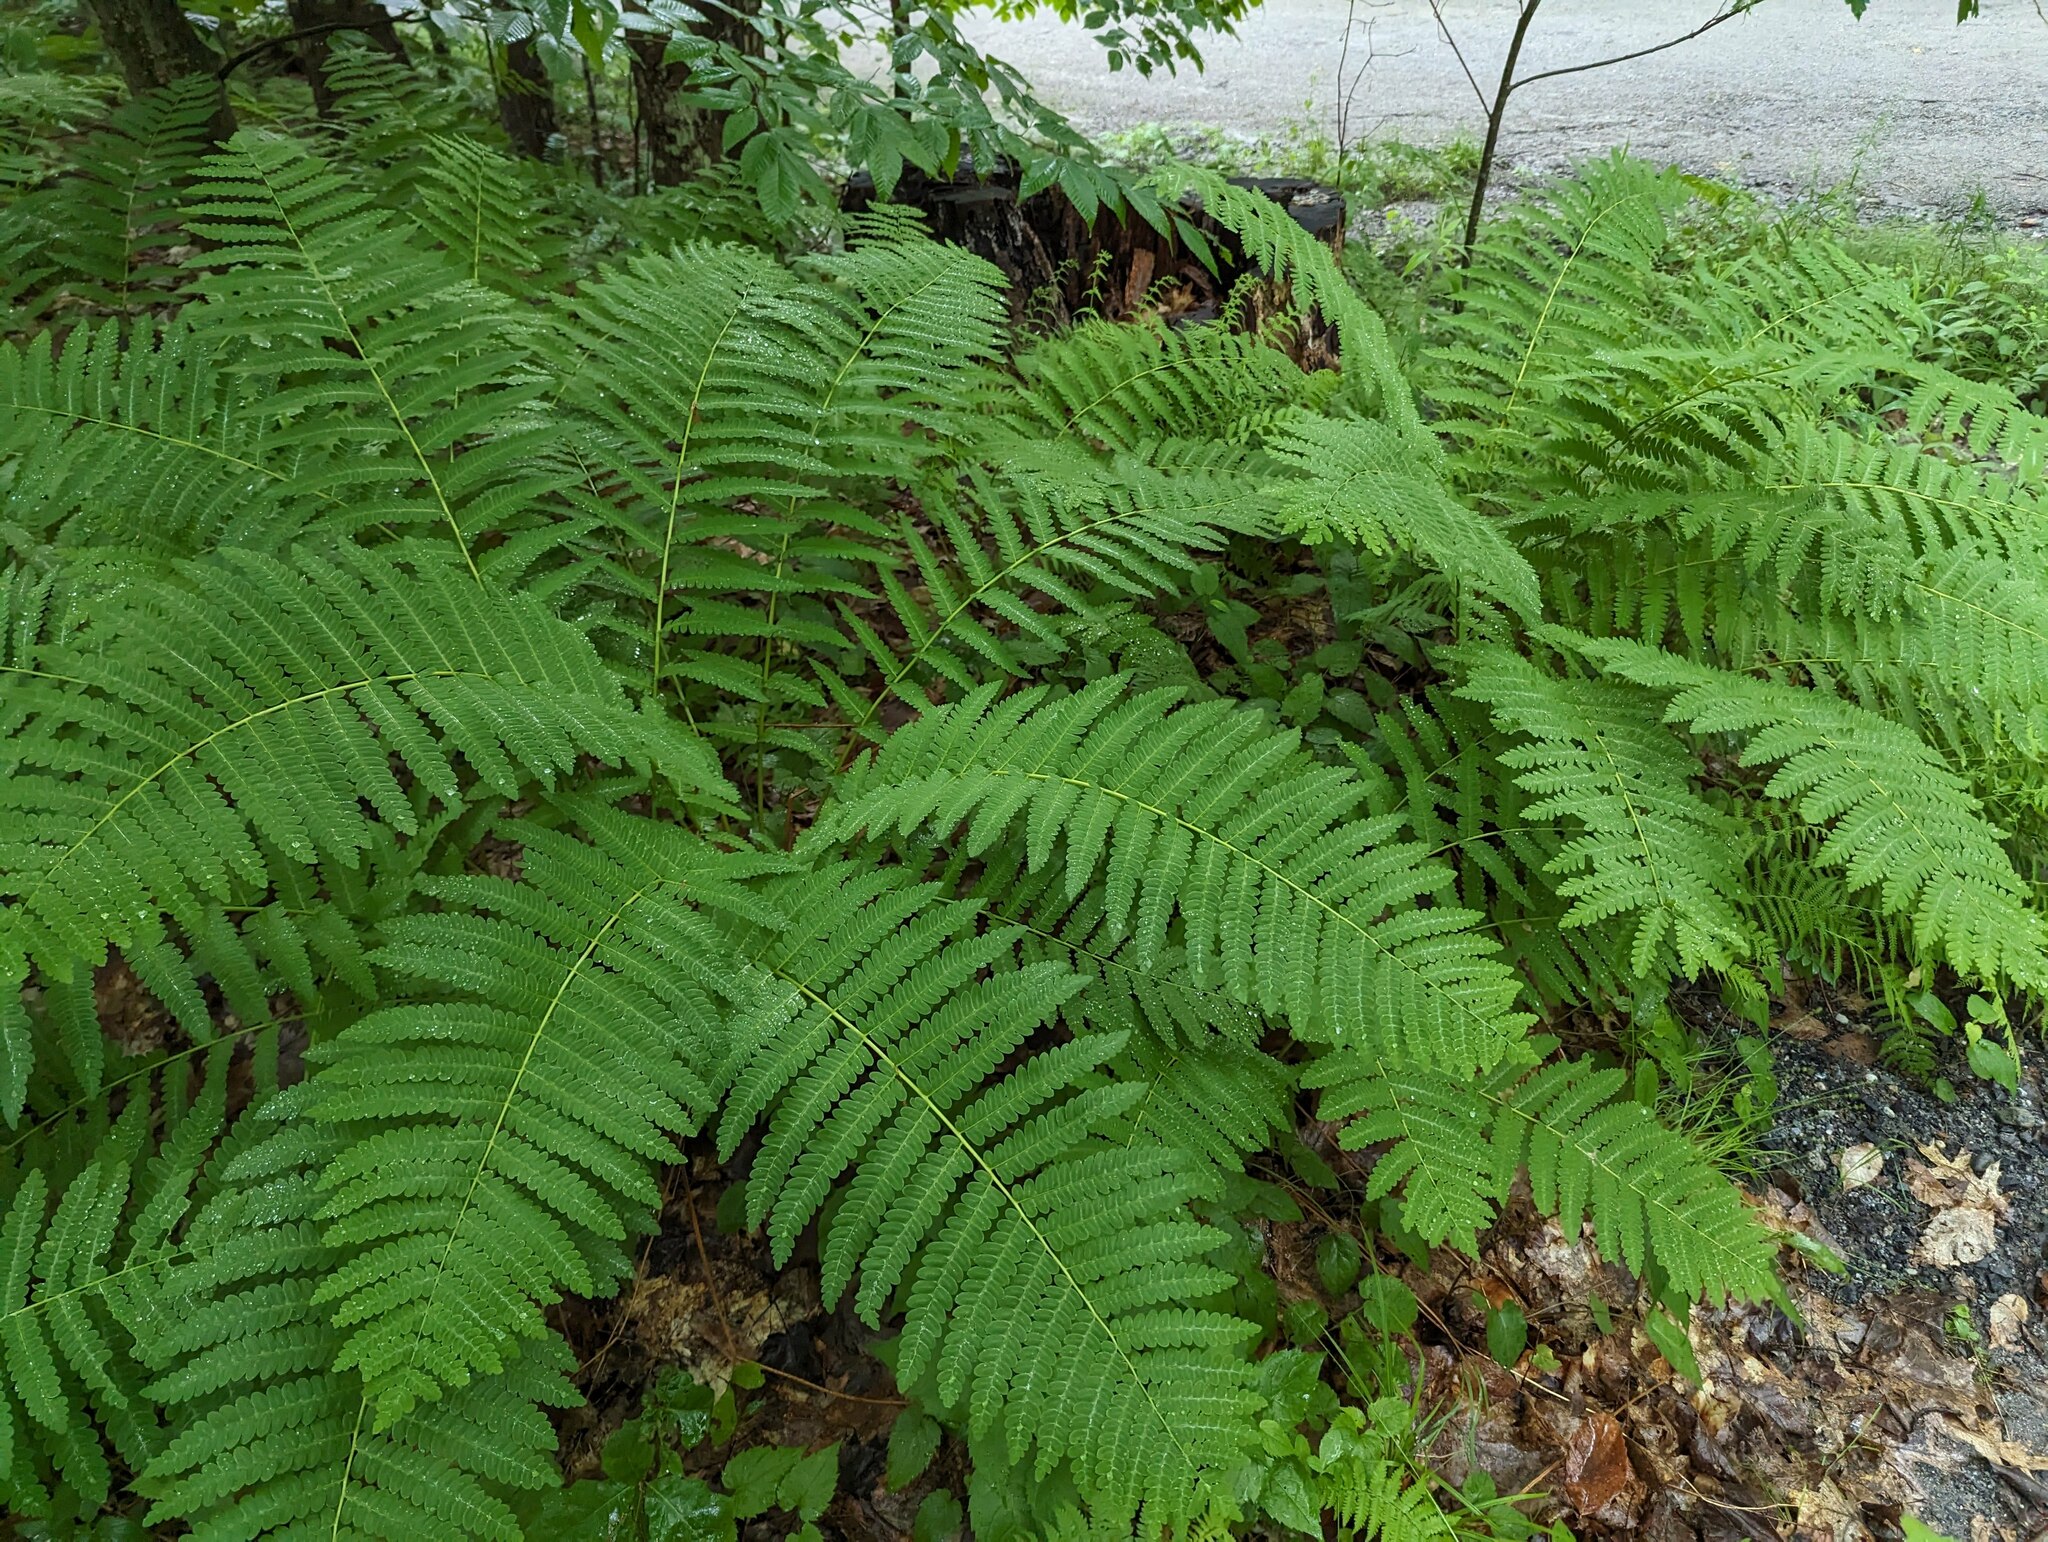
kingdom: Plantae
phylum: Tracheophyta
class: Polypodiopsida
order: Osmundales
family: Osmundaceae
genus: Claytosmunda
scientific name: Claytosmunda claytoniana
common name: Clayton's fern
